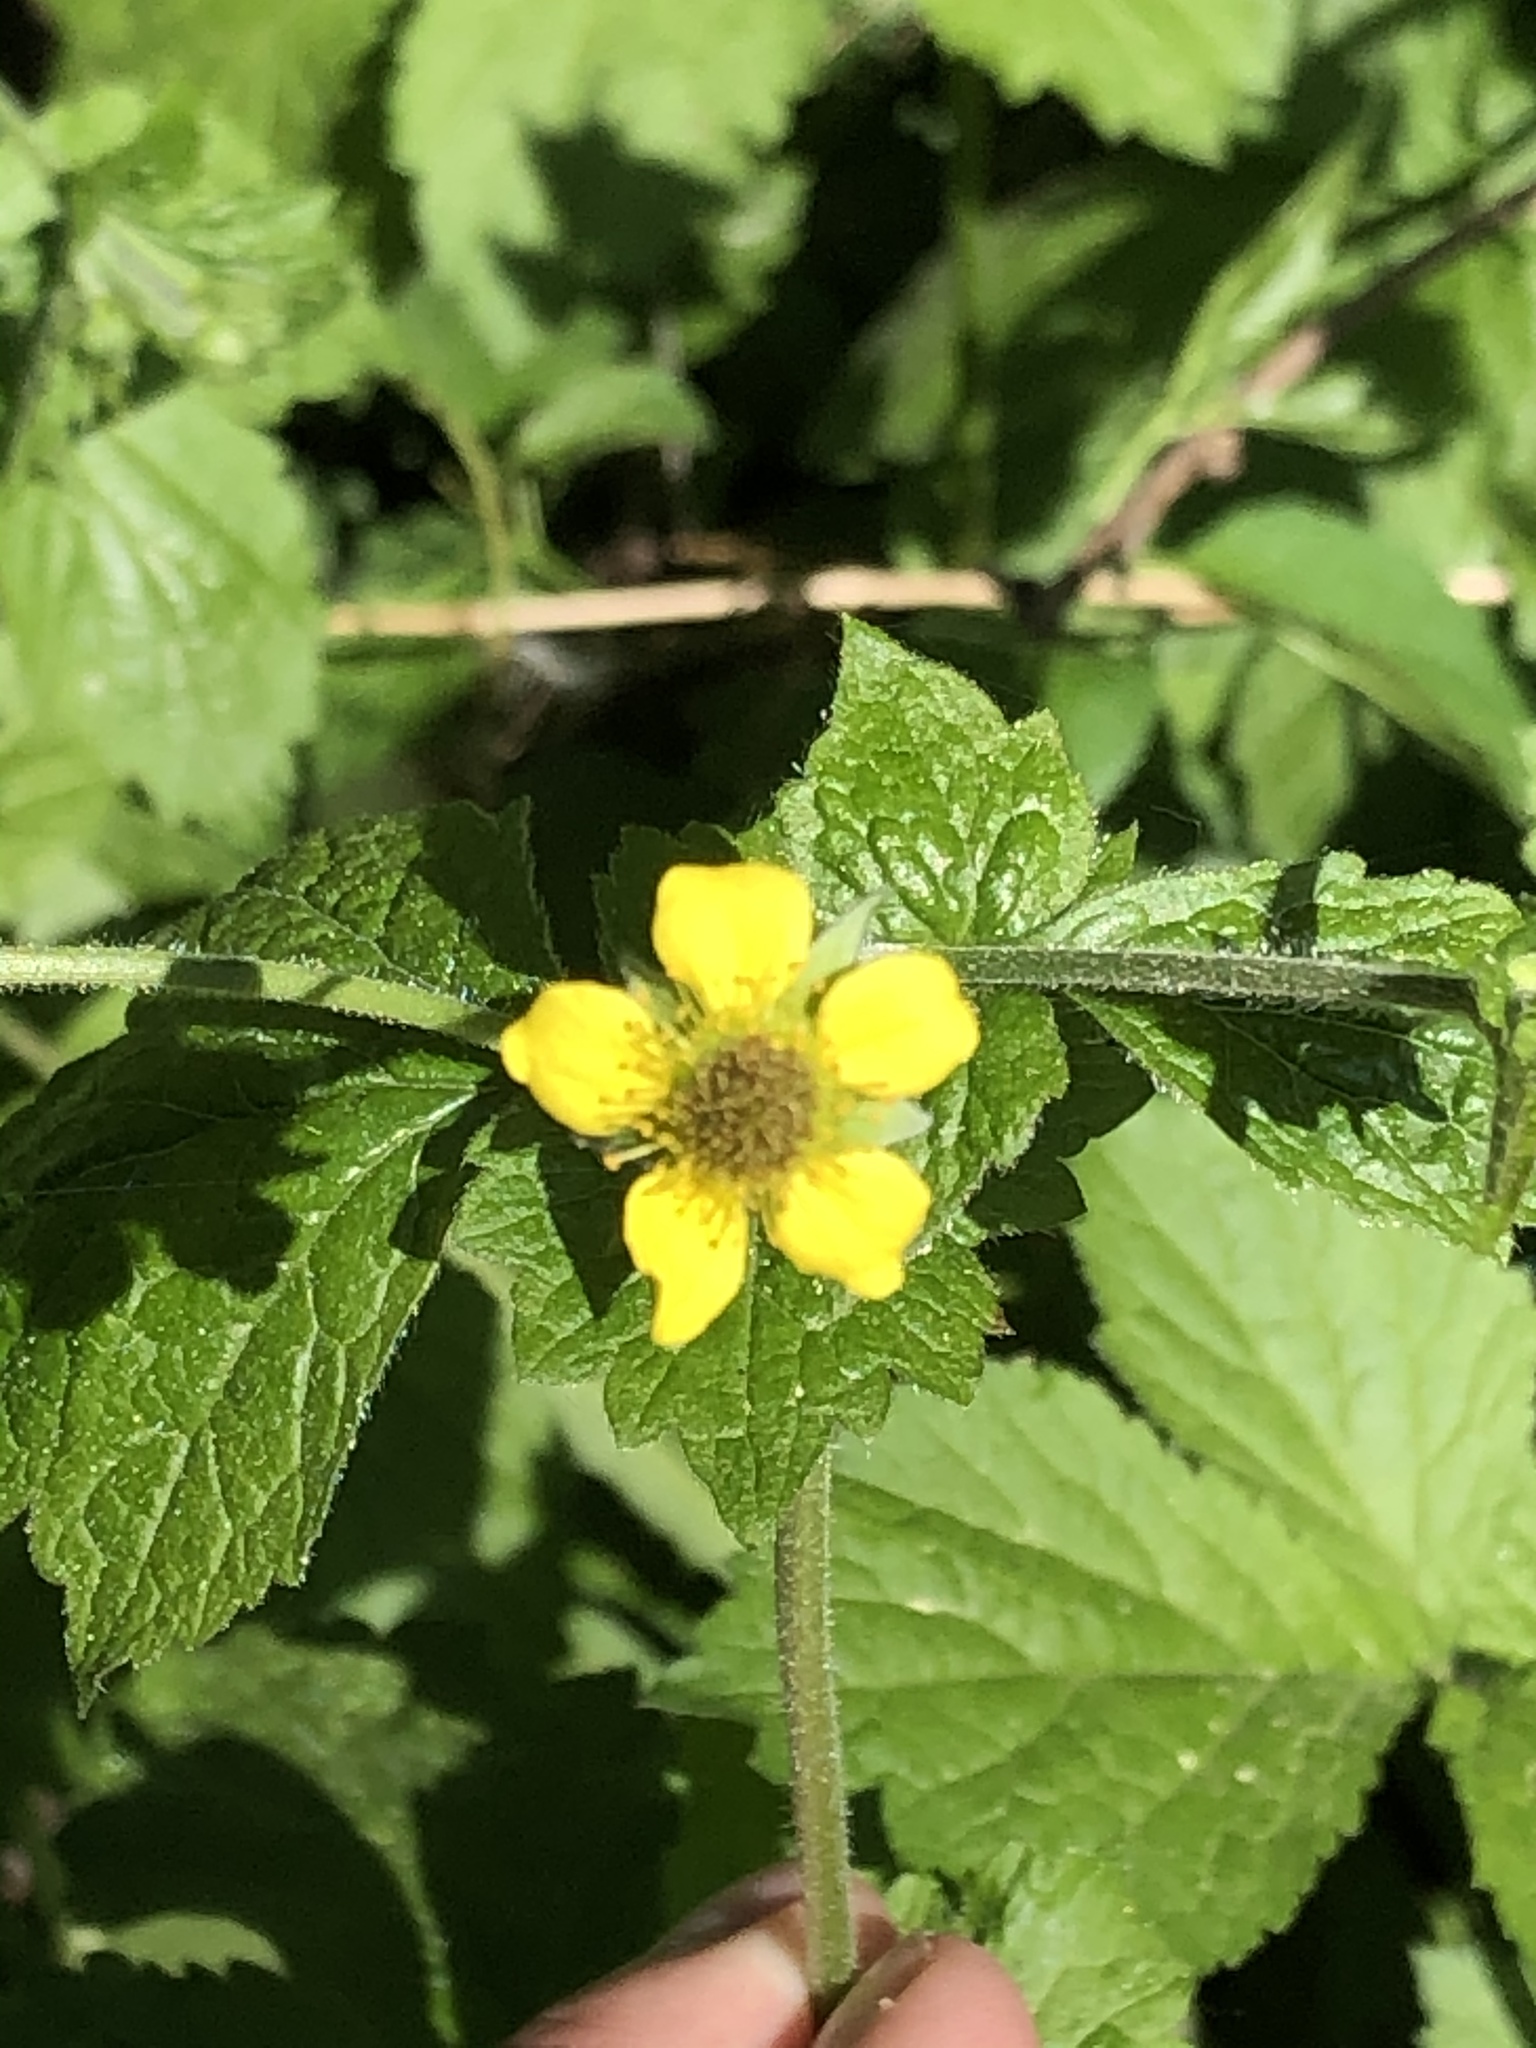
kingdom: Plantae
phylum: Tracheophyta
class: Magnoliopsida
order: Rosales
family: Rosaceae
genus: Geum
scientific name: Geum urbanum
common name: Wood avens
